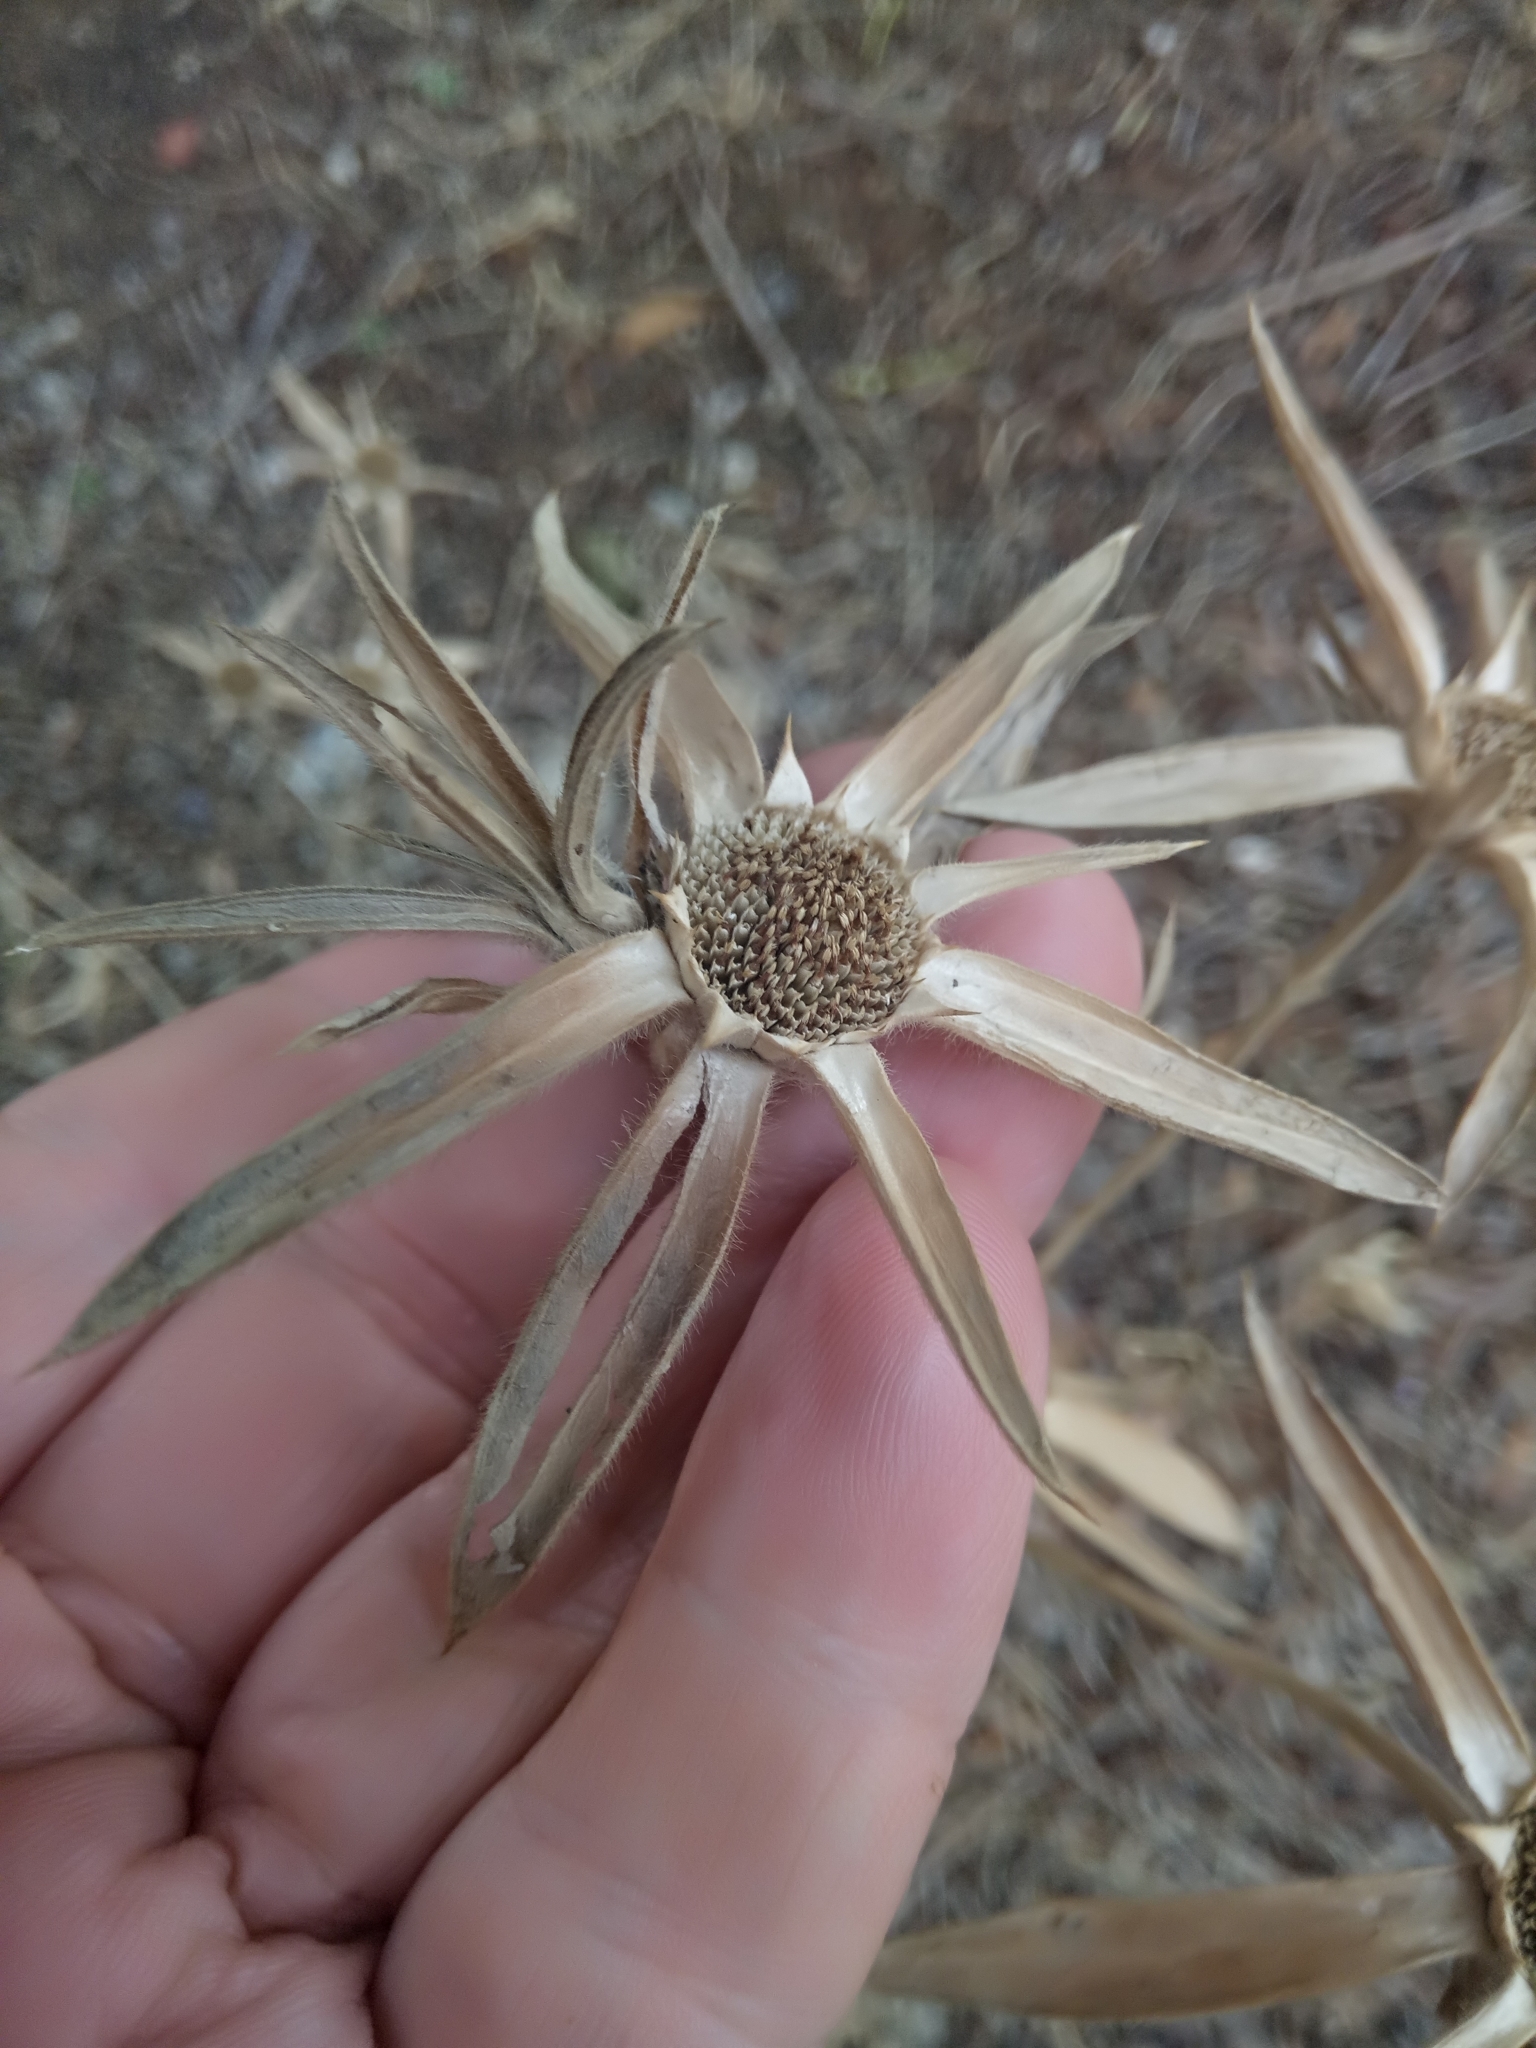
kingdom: Plantae
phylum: Tracheophyta
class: Magnoliopsida
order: Asterales
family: Asteraceae
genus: Pallenis
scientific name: Pallenis spinosa
